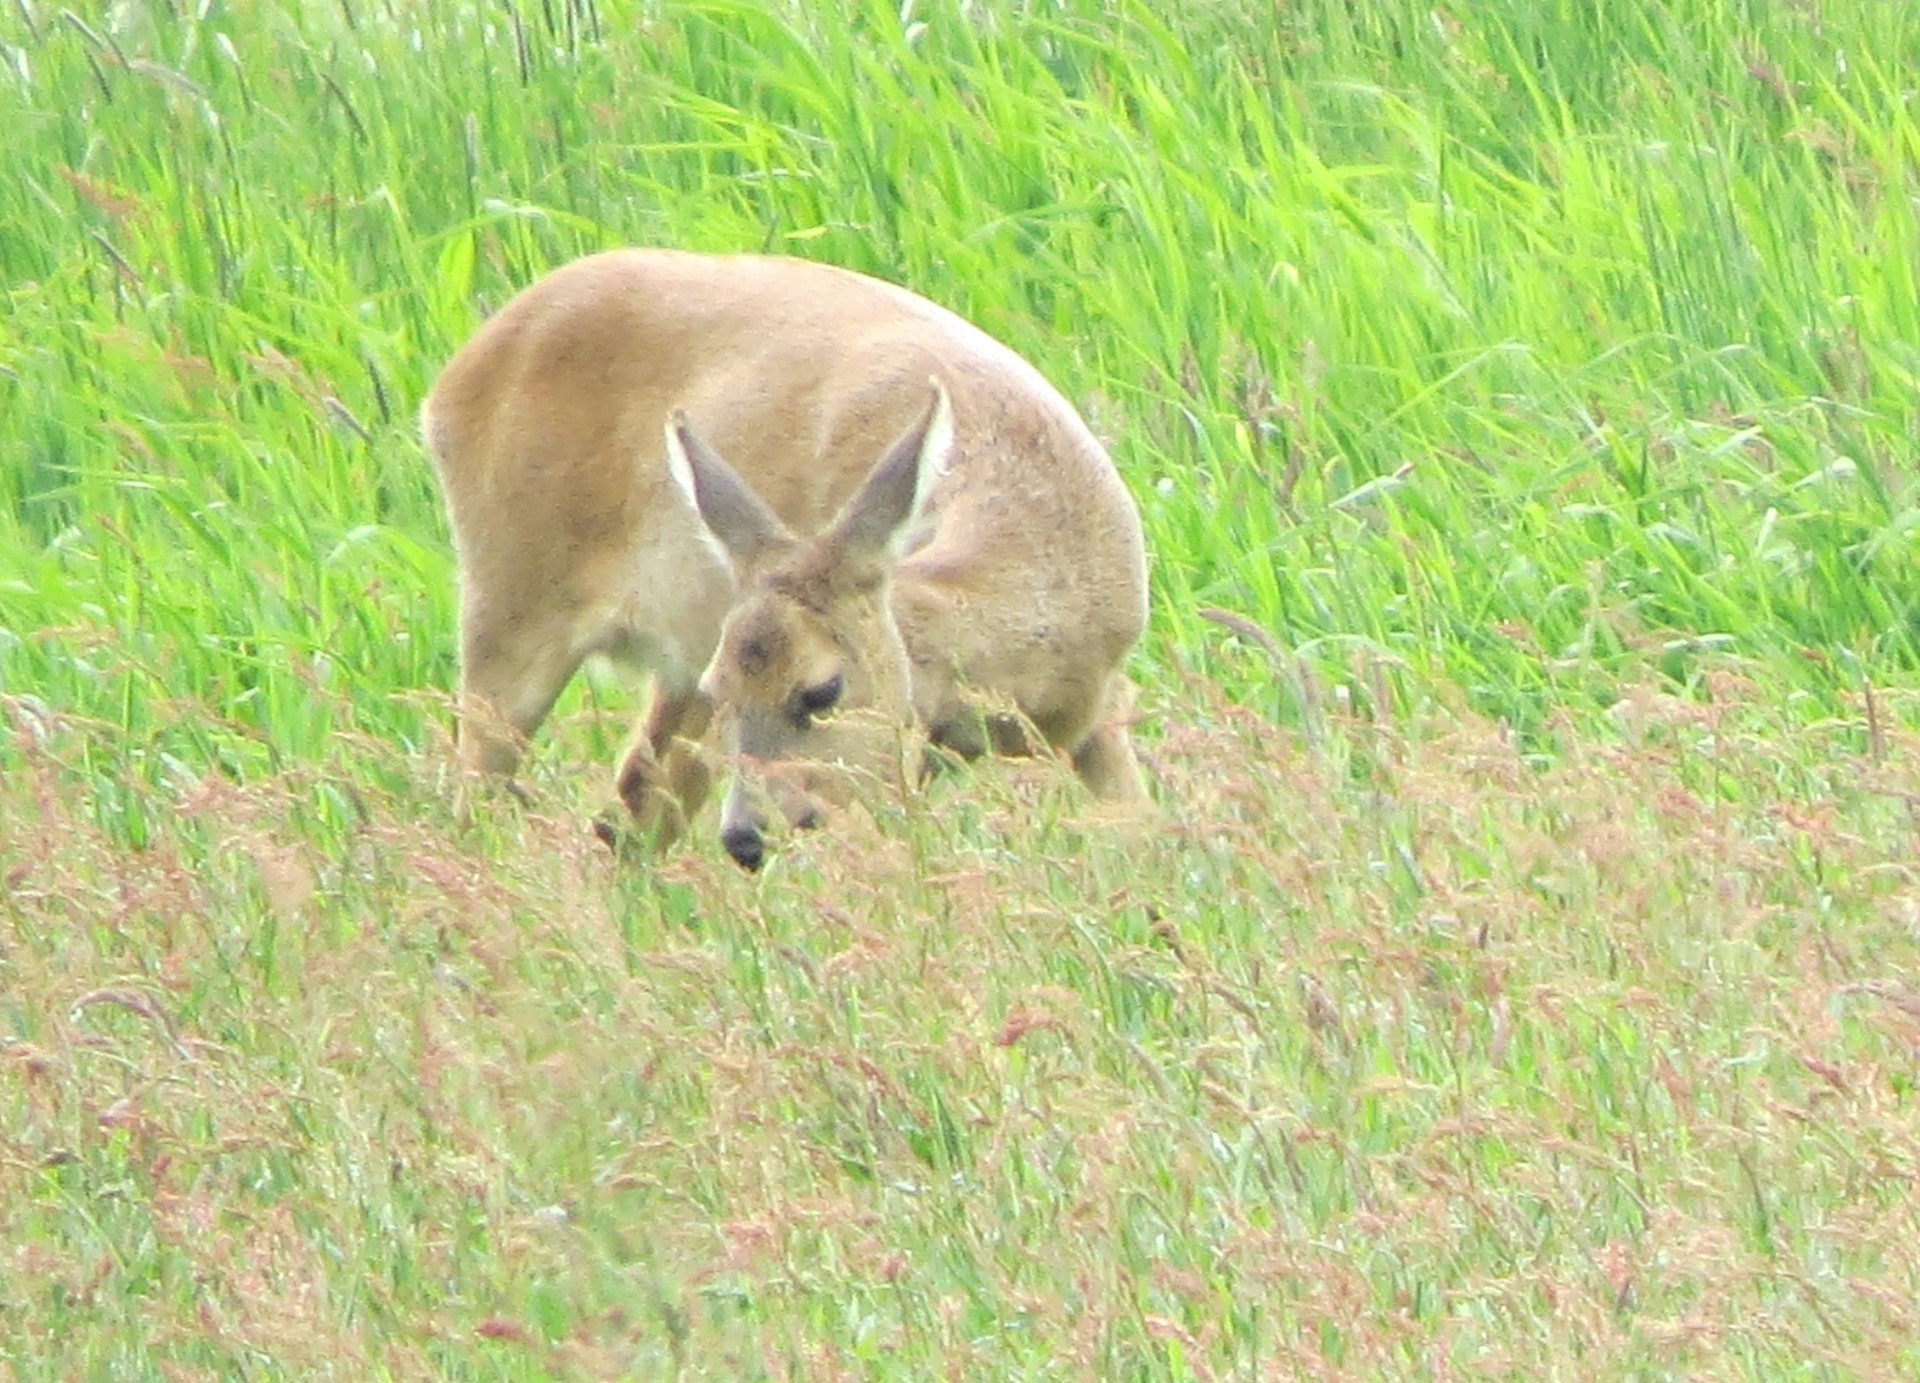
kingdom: Animalia
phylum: Chordata
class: Mammalia
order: Artiodactyla
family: Cervidae
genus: Capreolus
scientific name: Capreolus capreolus
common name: Western roe deer
